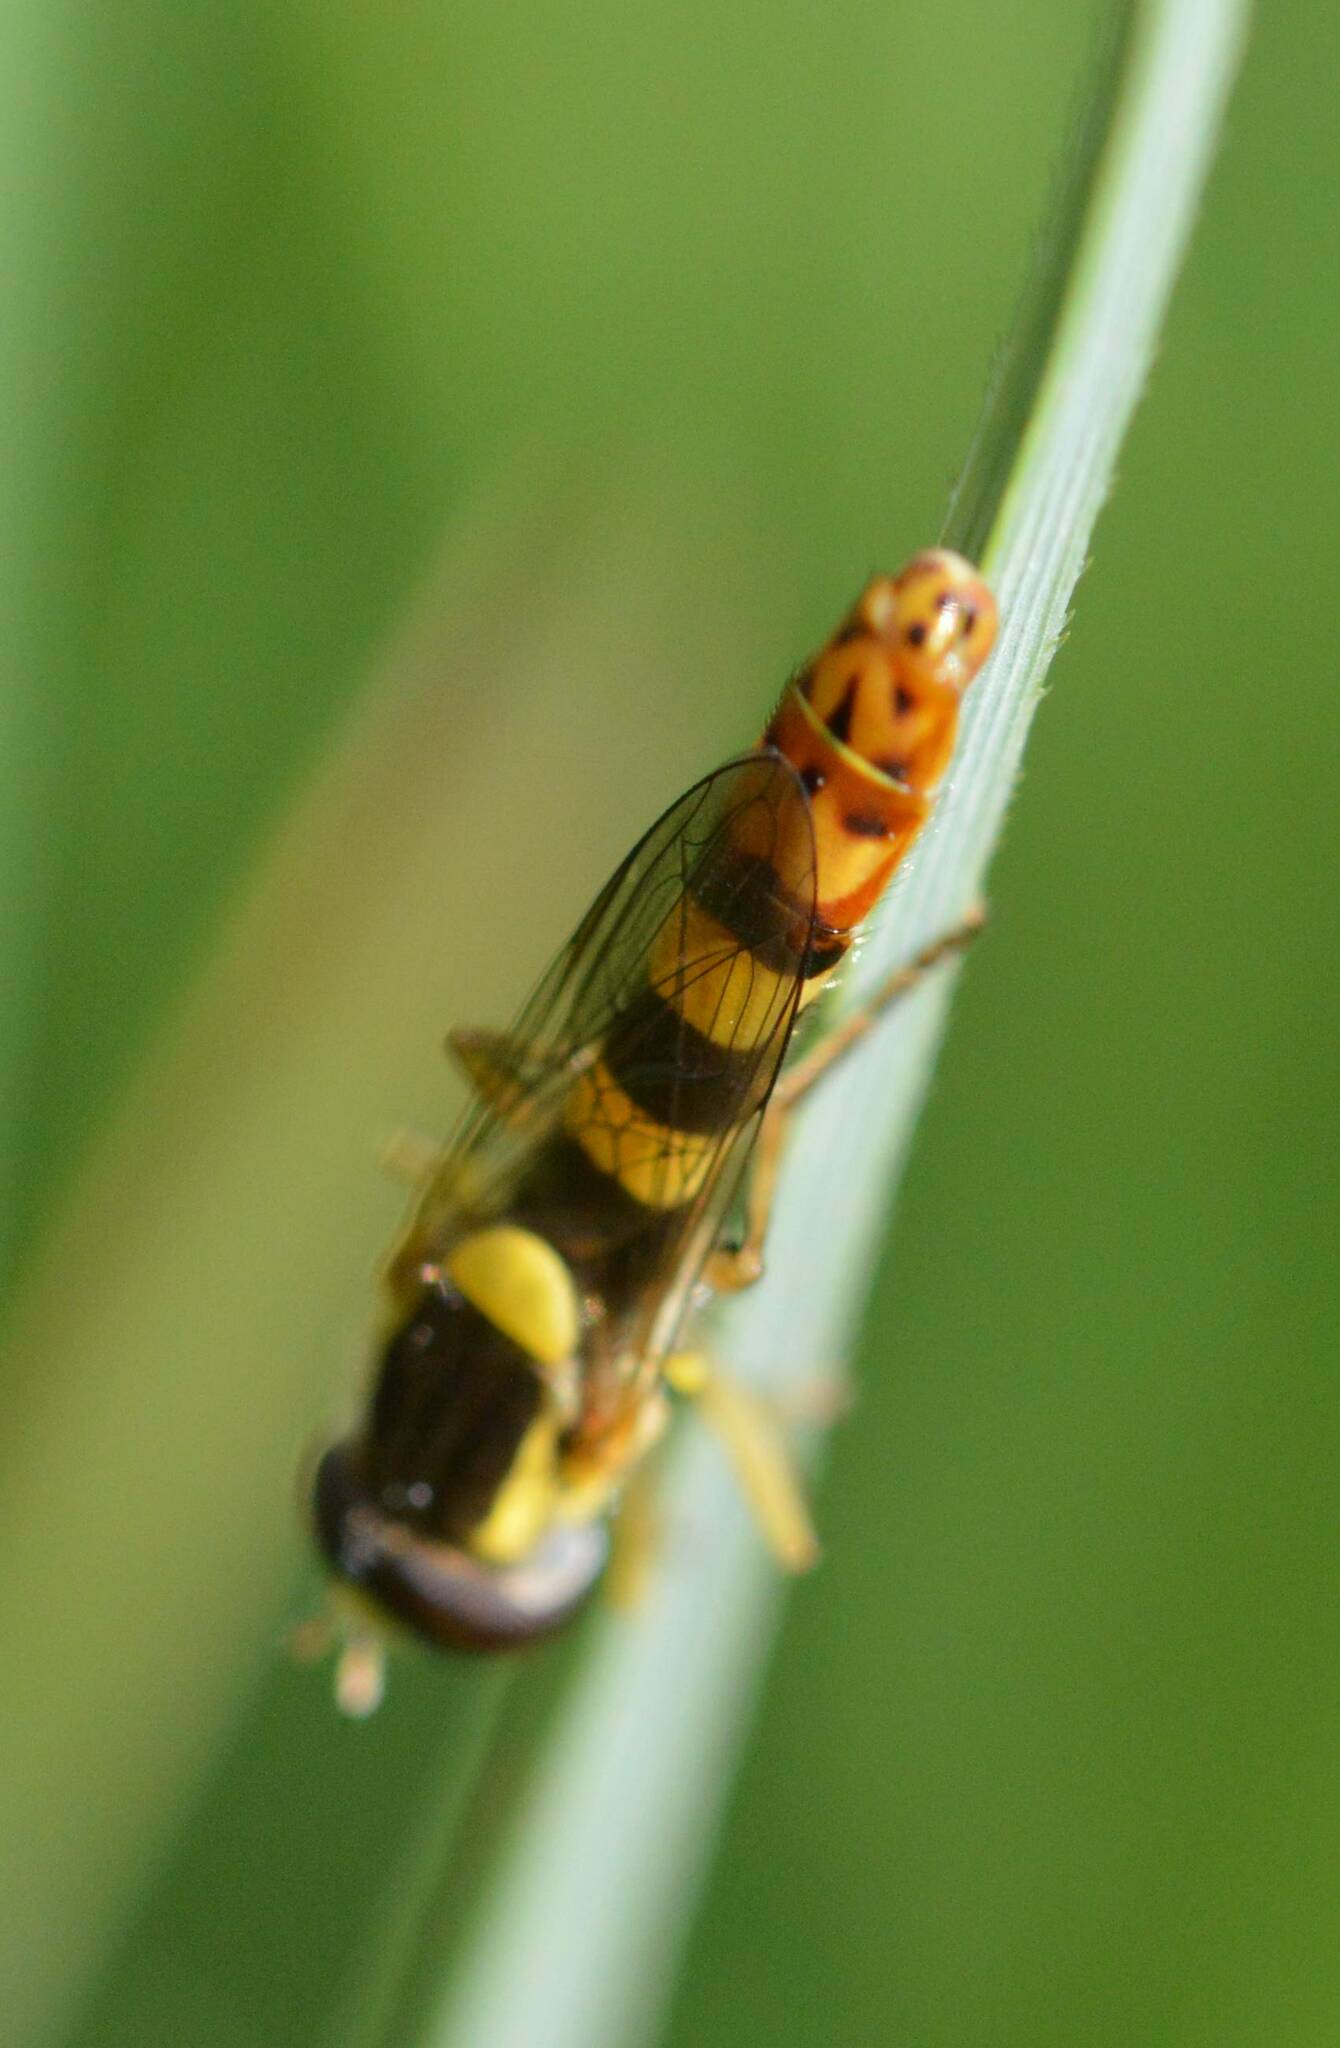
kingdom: Animalia
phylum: Arthropoda
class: Insecta
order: Diptera
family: Syrphidae
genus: Sphaerophoria
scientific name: Sphaerophoria scripta
